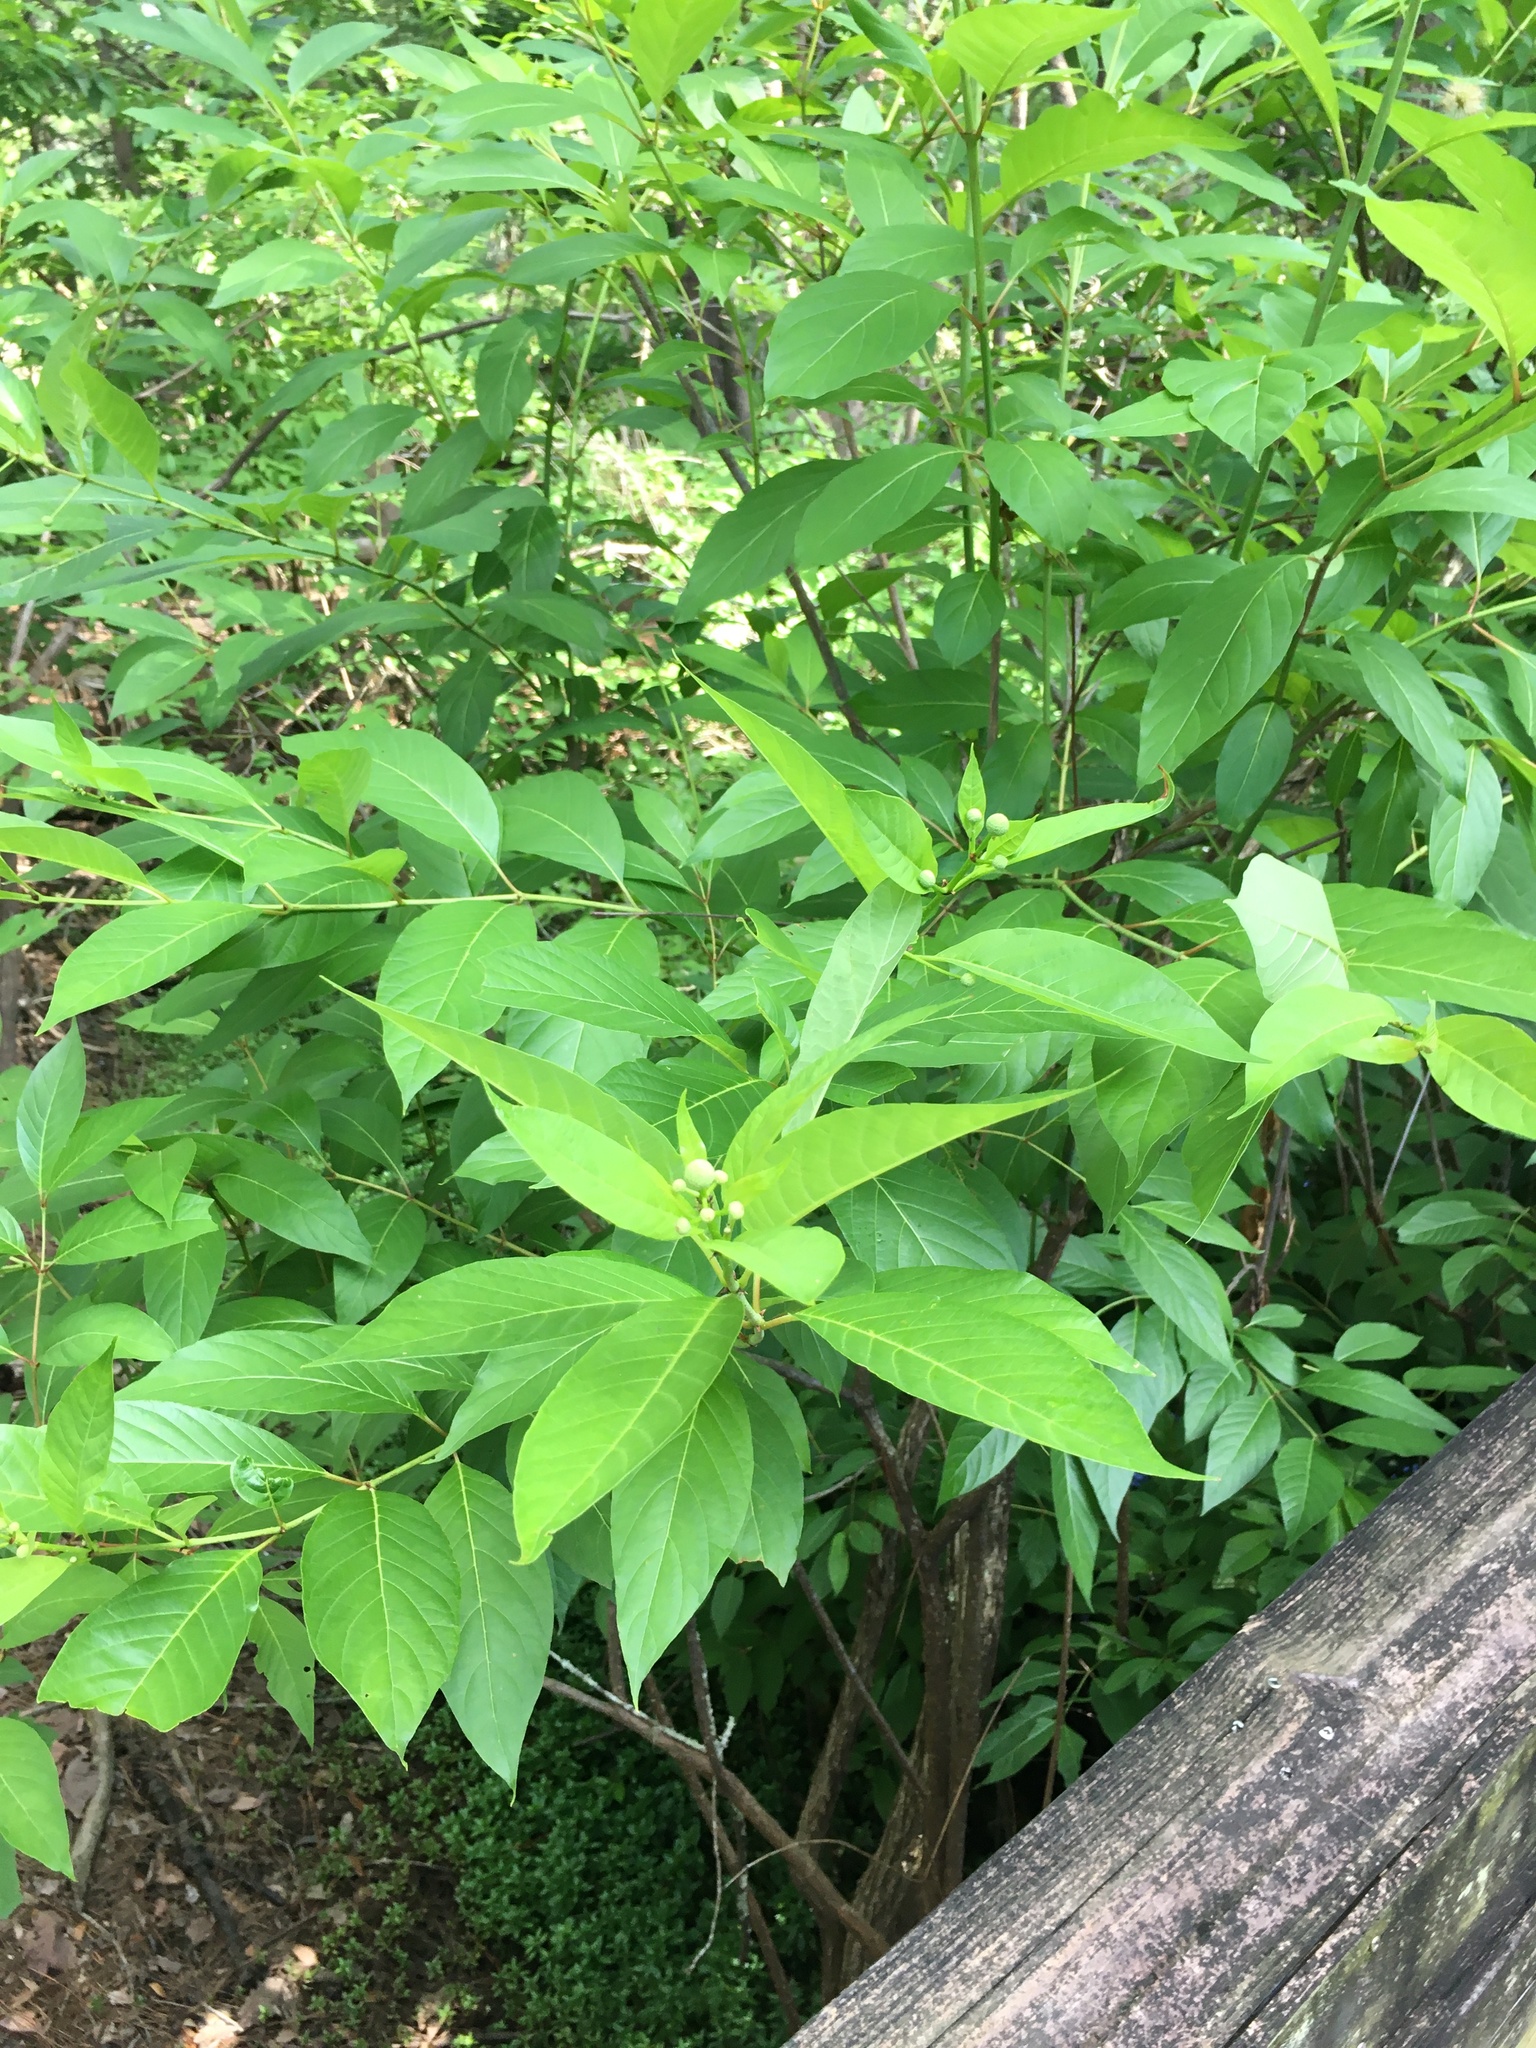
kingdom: Plantae
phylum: Tracheophyta
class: Magnoliopsida
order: Gentianales
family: Rubiaceae
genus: Cephalanthus
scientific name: Cephalanthus occidentalis
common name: Button-willow
